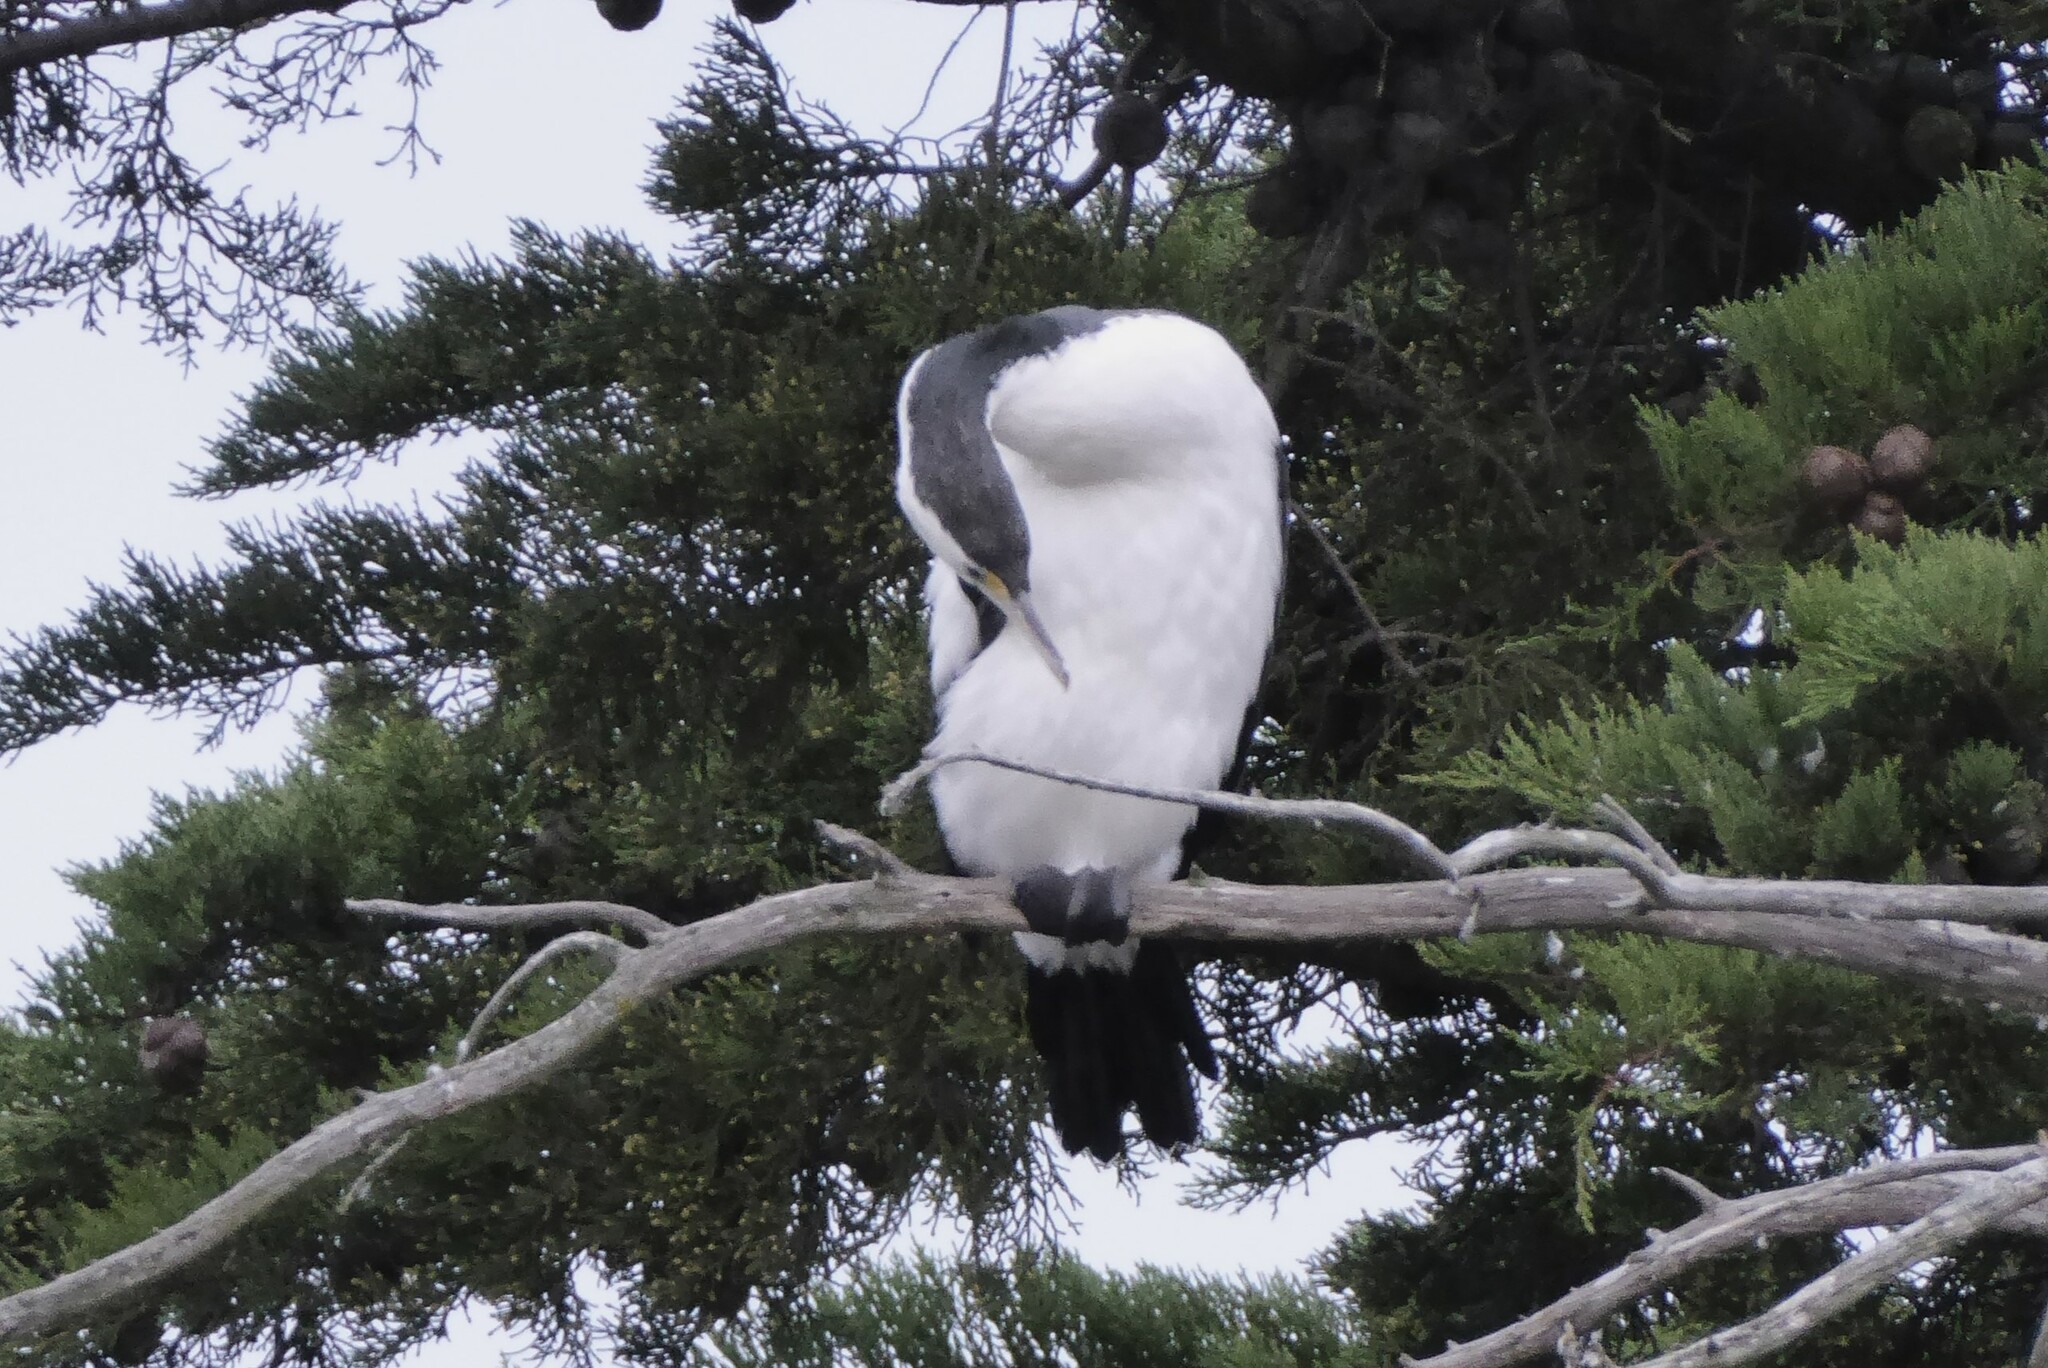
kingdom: Animalia
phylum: Chordata
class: Aves
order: Suliformes
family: Phalacrocoracidae
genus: Phalacrocorax
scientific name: Phalacrocorax varius
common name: Pied cormorant
